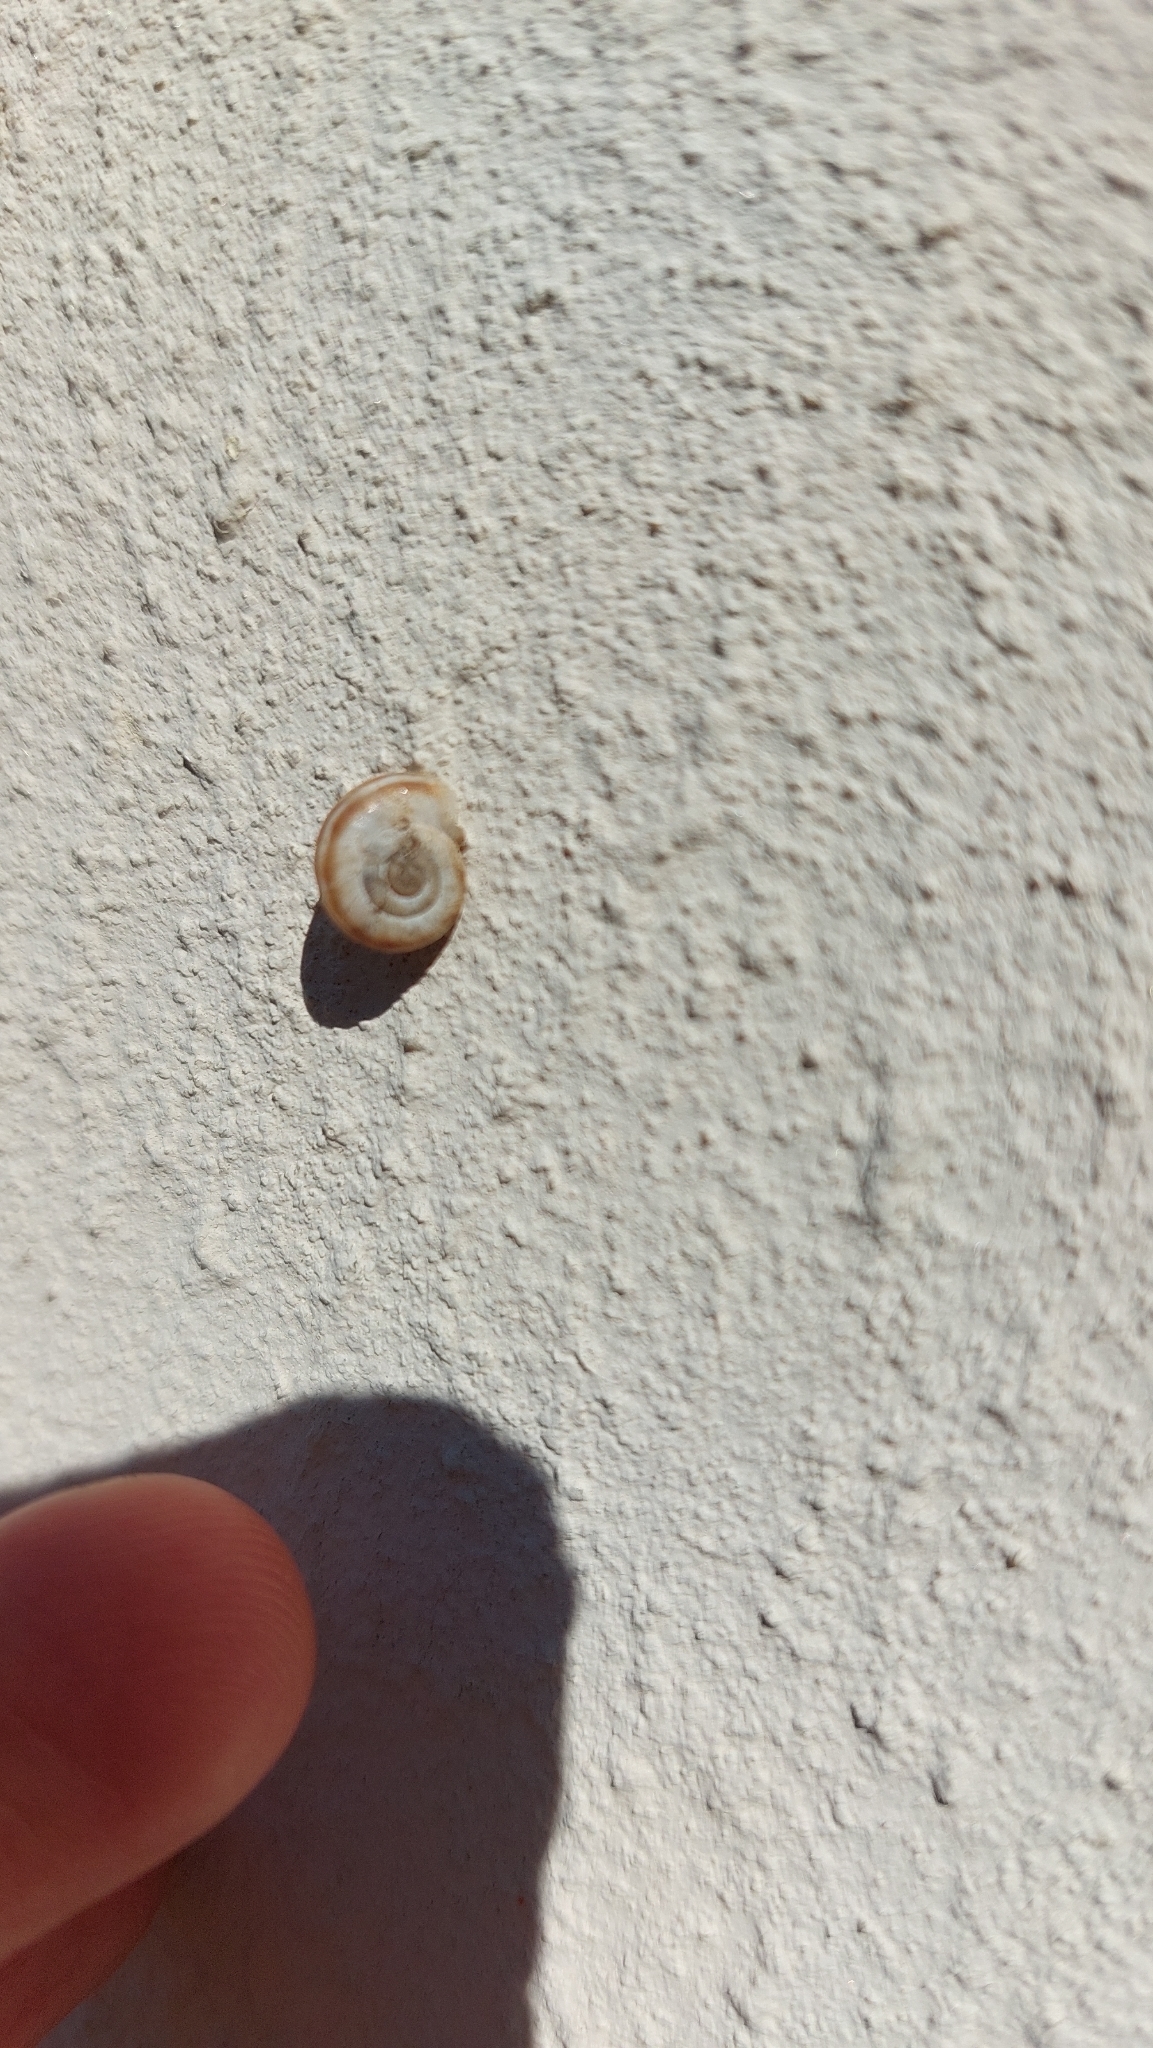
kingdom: Animalia
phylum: Mollusca
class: Gastropoda
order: Stylommatophora
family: Geomitridae
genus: Xerolenta
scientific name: Xerolenta obvia
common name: White heath snail
